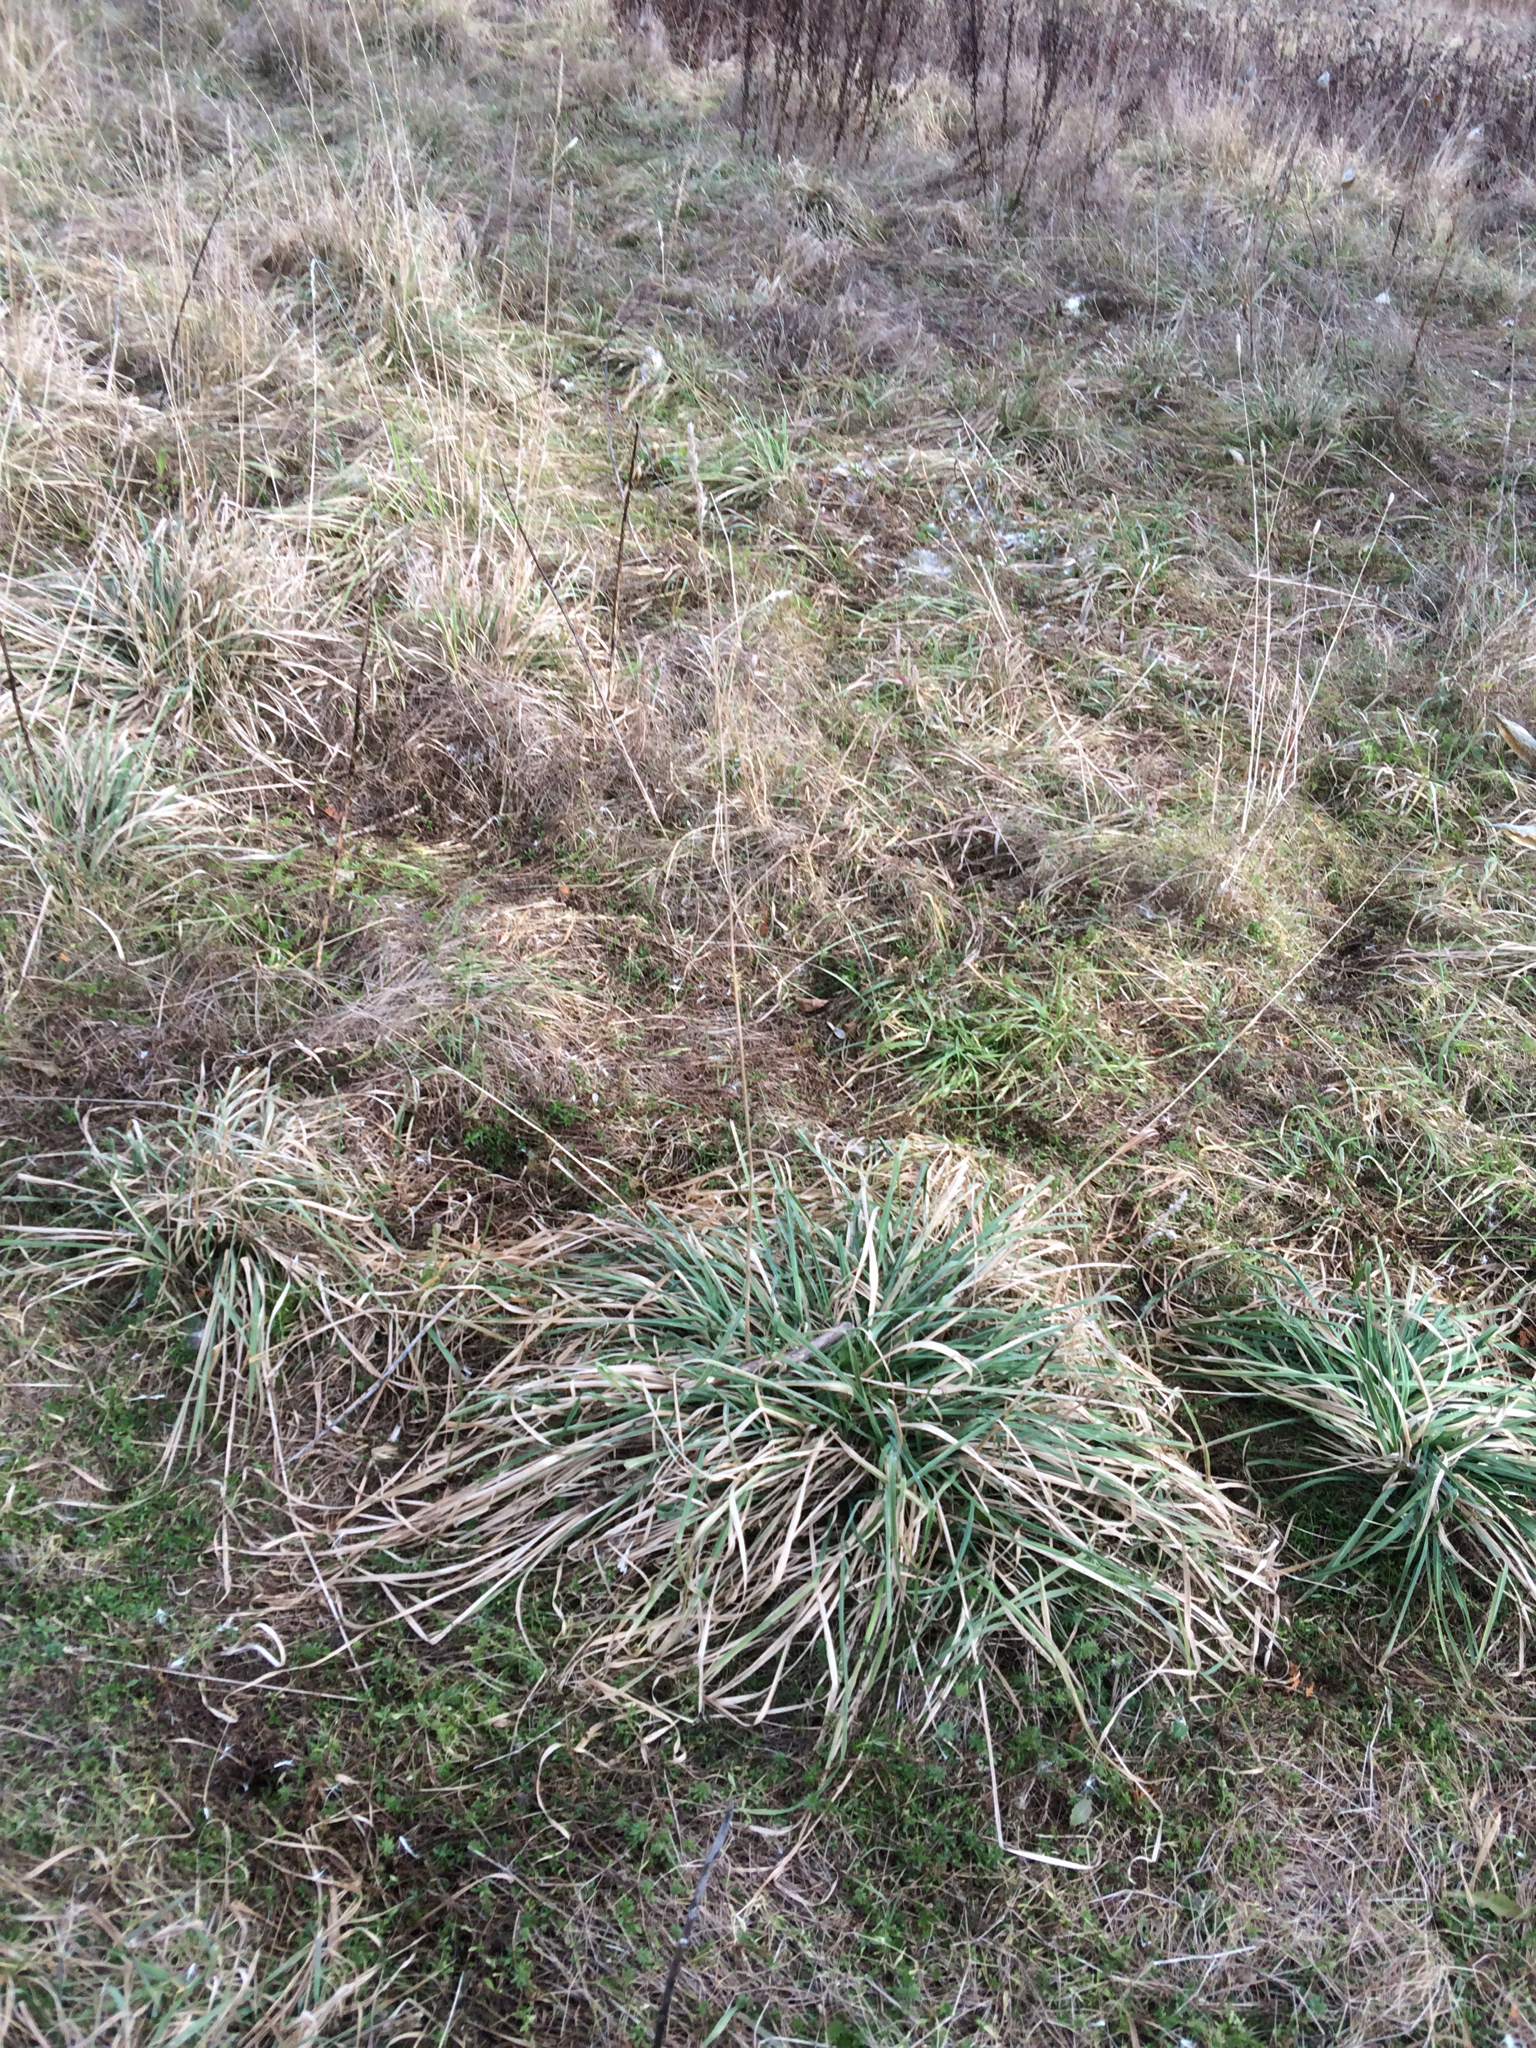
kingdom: Plantae
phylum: Tracheophyta
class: Liliopsida
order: Poales
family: Poaceae
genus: Dactylis
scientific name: Dactylis glomerata
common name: Orchardgrass
